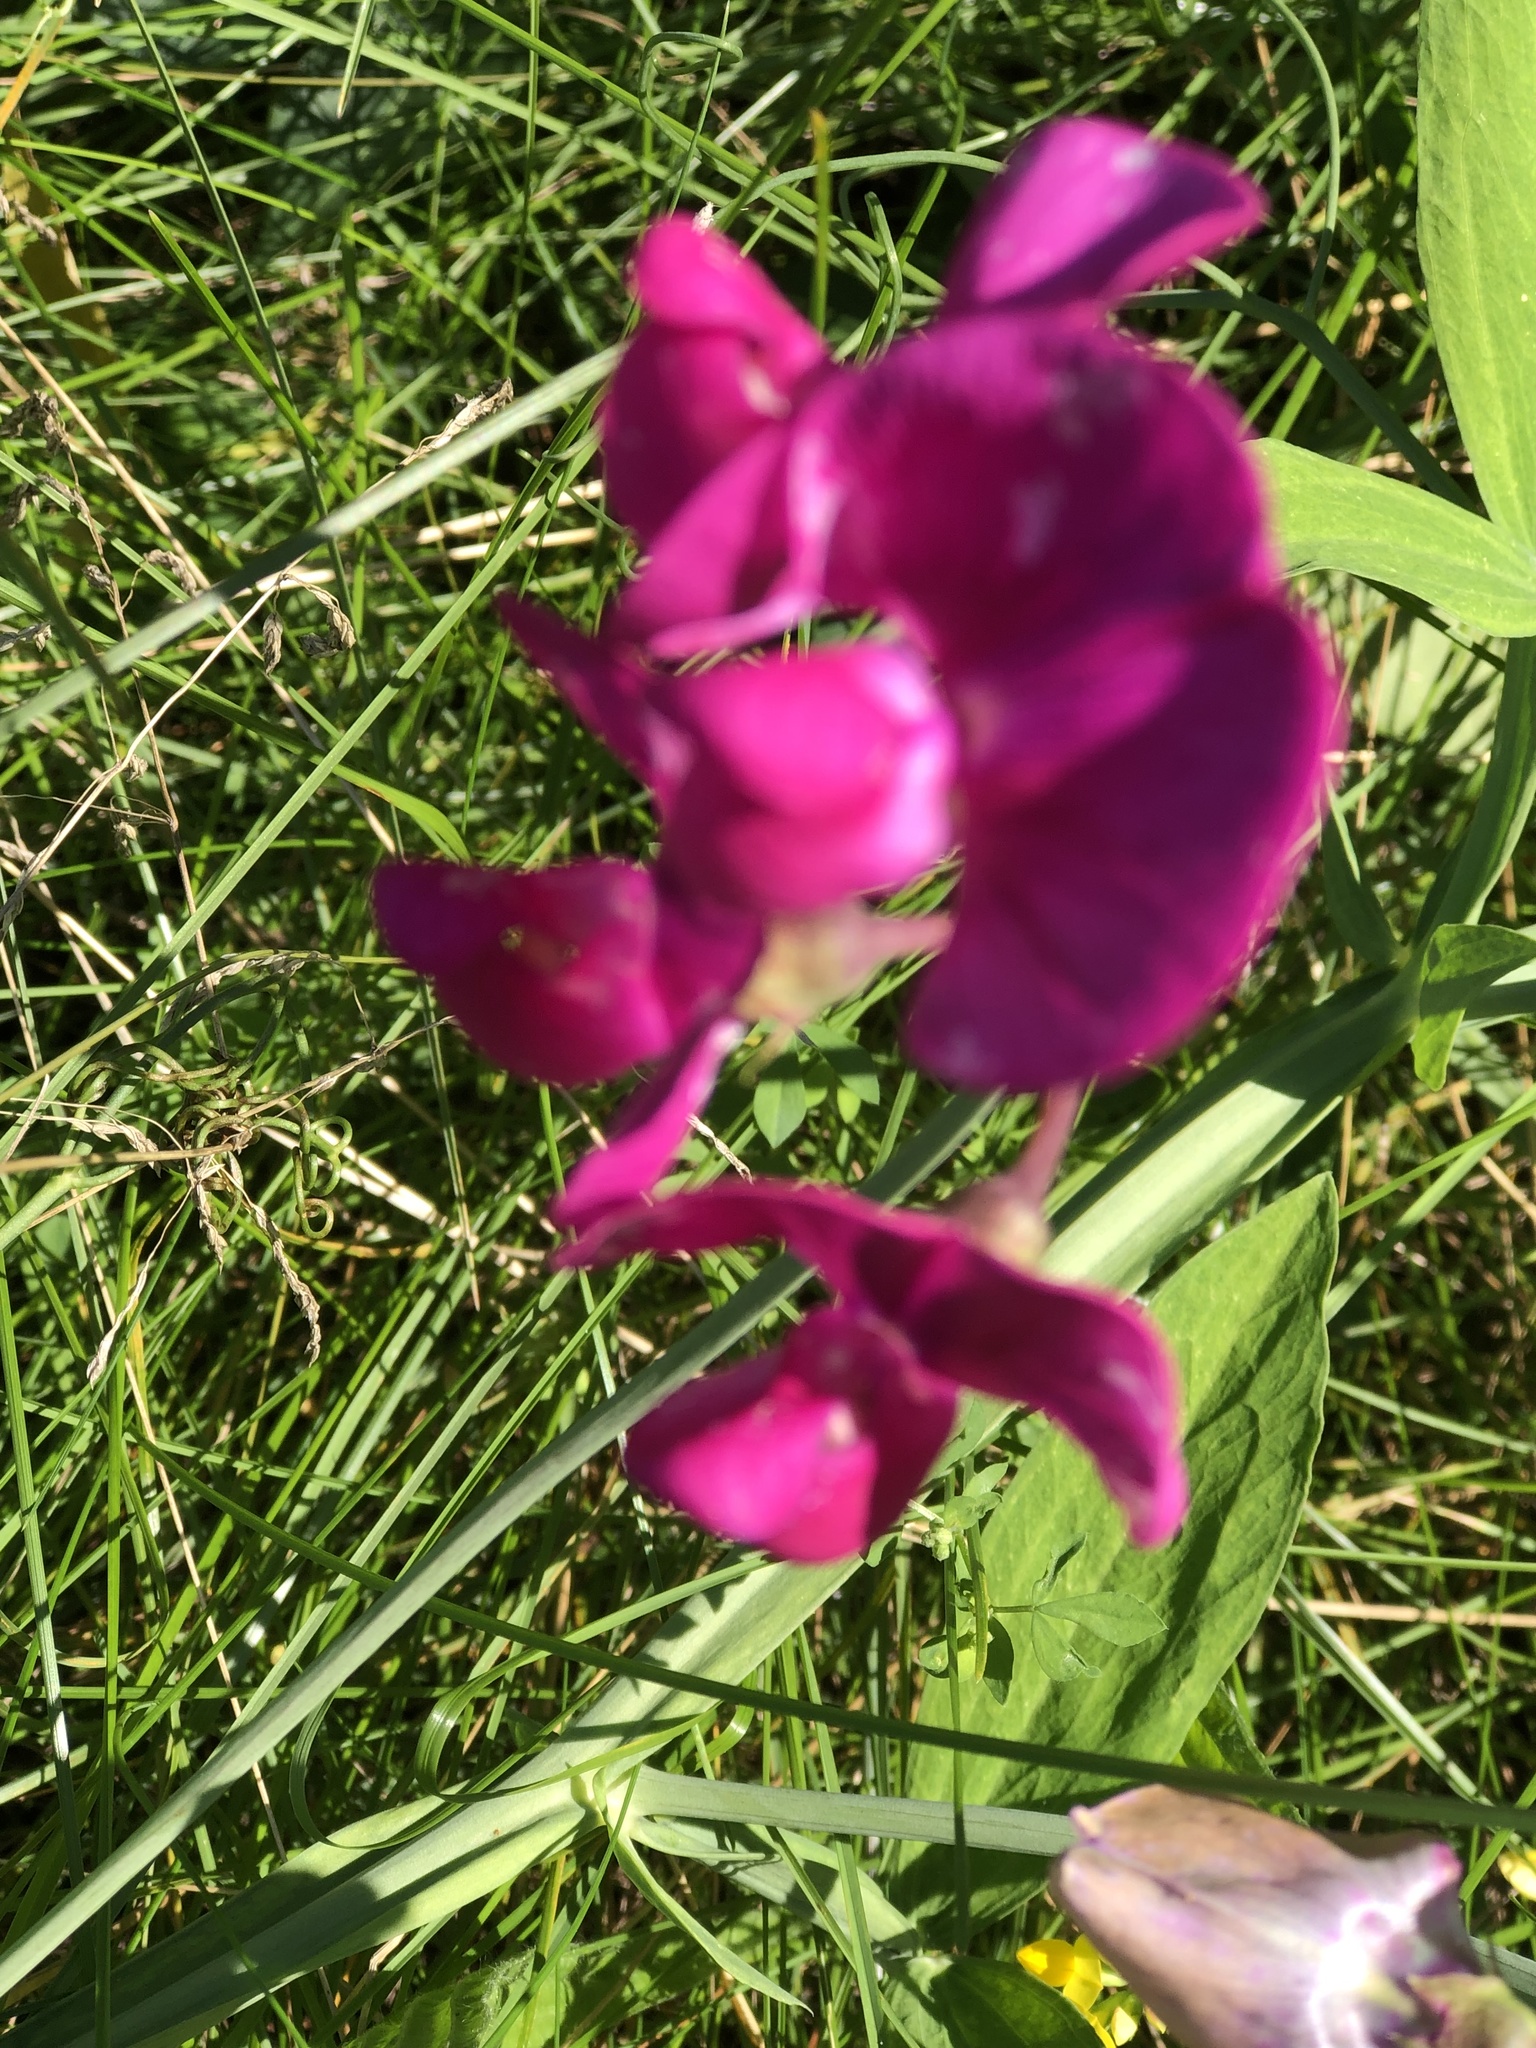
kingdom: Plantae
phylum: Tracheophyta
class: Magnoliopsida
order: Fabales
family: Fabaceae
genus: Lathyrus
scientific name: Lathyrus latifolius
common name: Perennial pea
